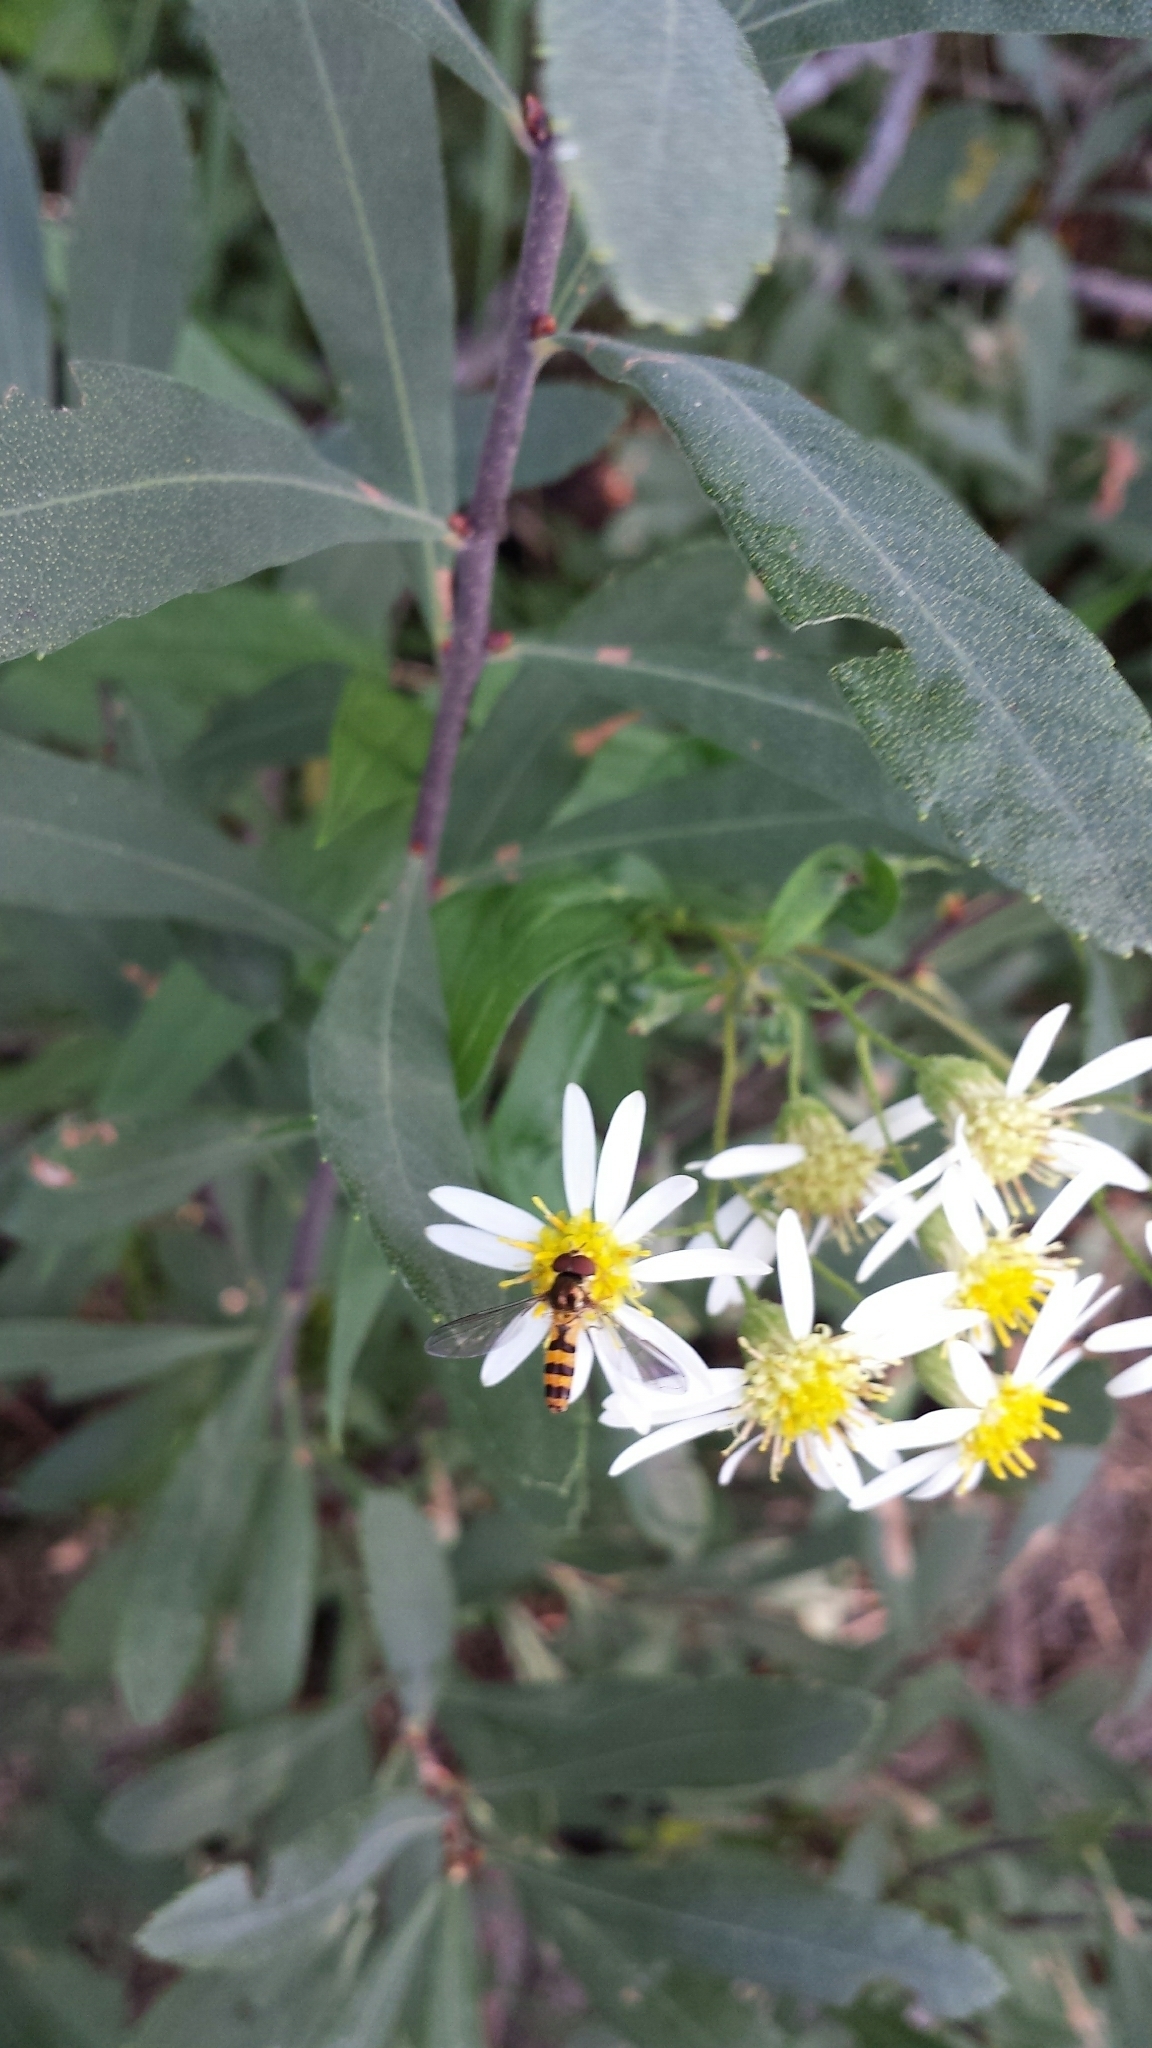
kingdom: Animalia
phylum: Arthropoda
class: Insecta
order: Diptera
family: Syrphidae
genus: Meliscaeva
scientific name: Meliscaeva cinctella
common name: American thintail fly
